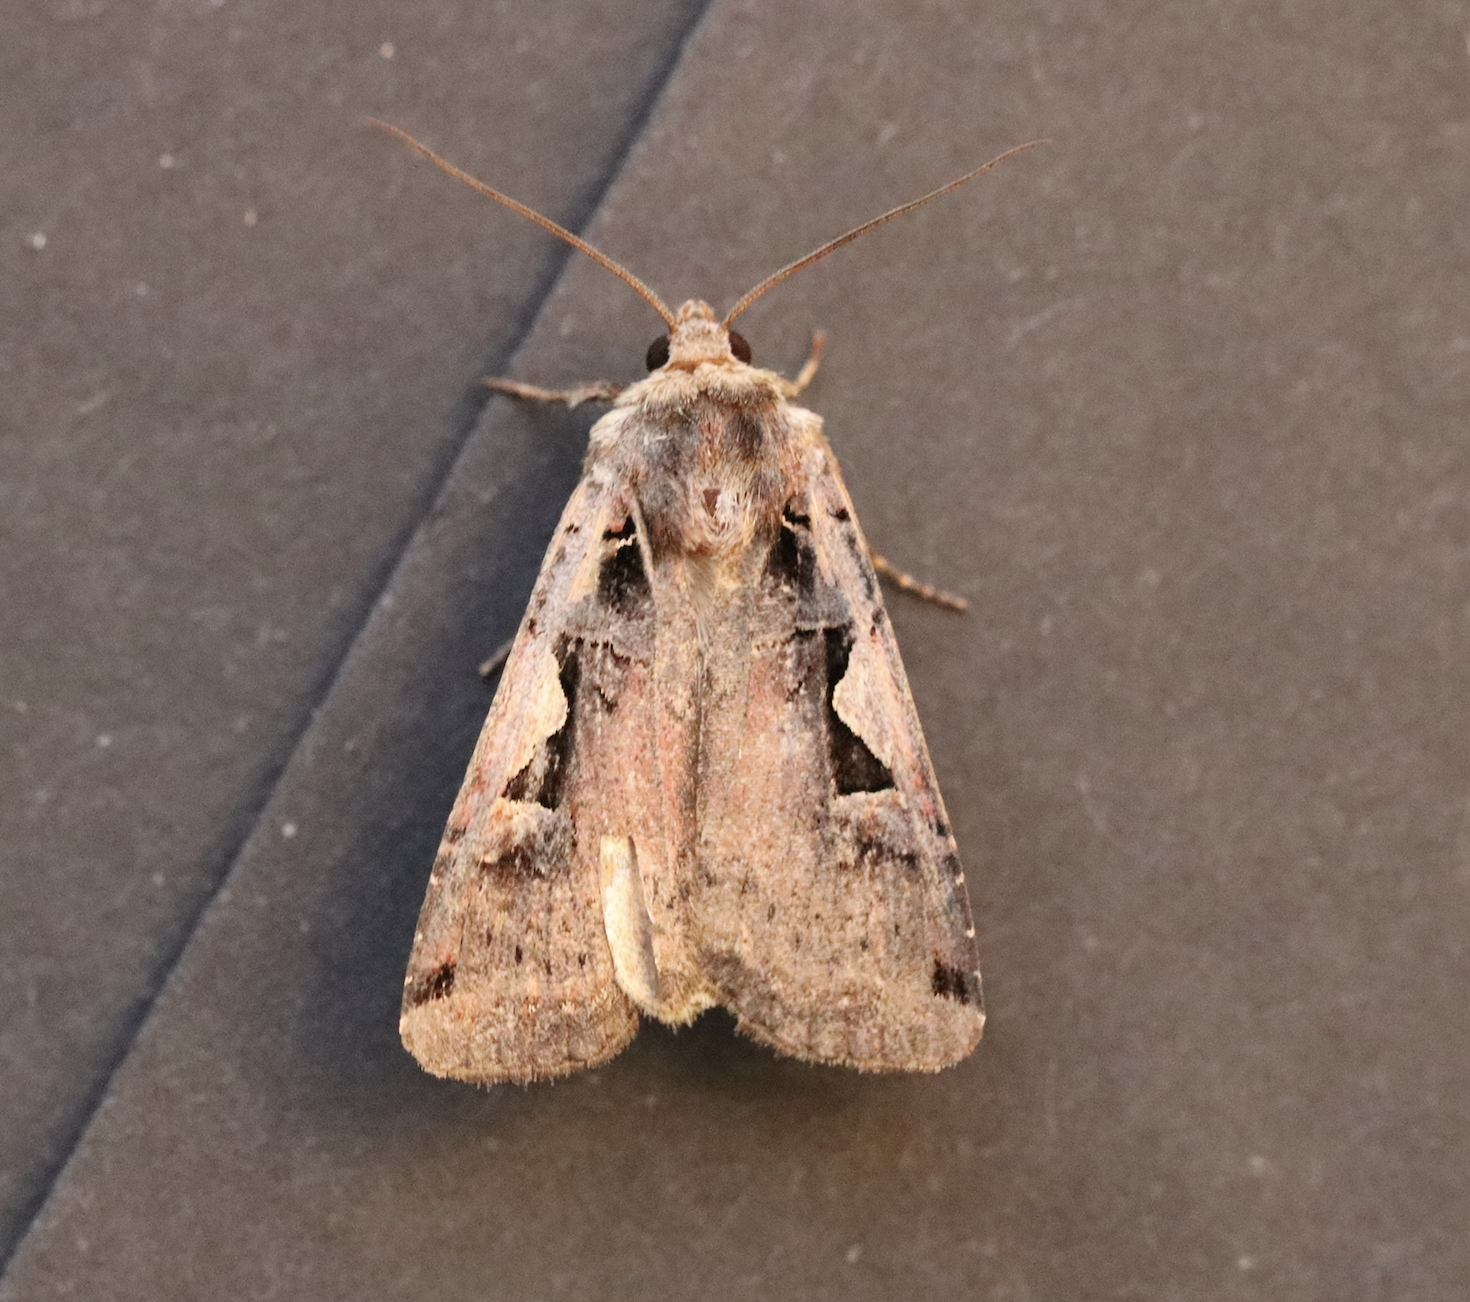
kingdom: Animalia
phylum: Arthropoda
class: Insecta
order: Lepidoptera
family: Noctuidae
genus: Xestia
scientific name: Xestia c-nigrum
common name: Setaceous hebrew character
